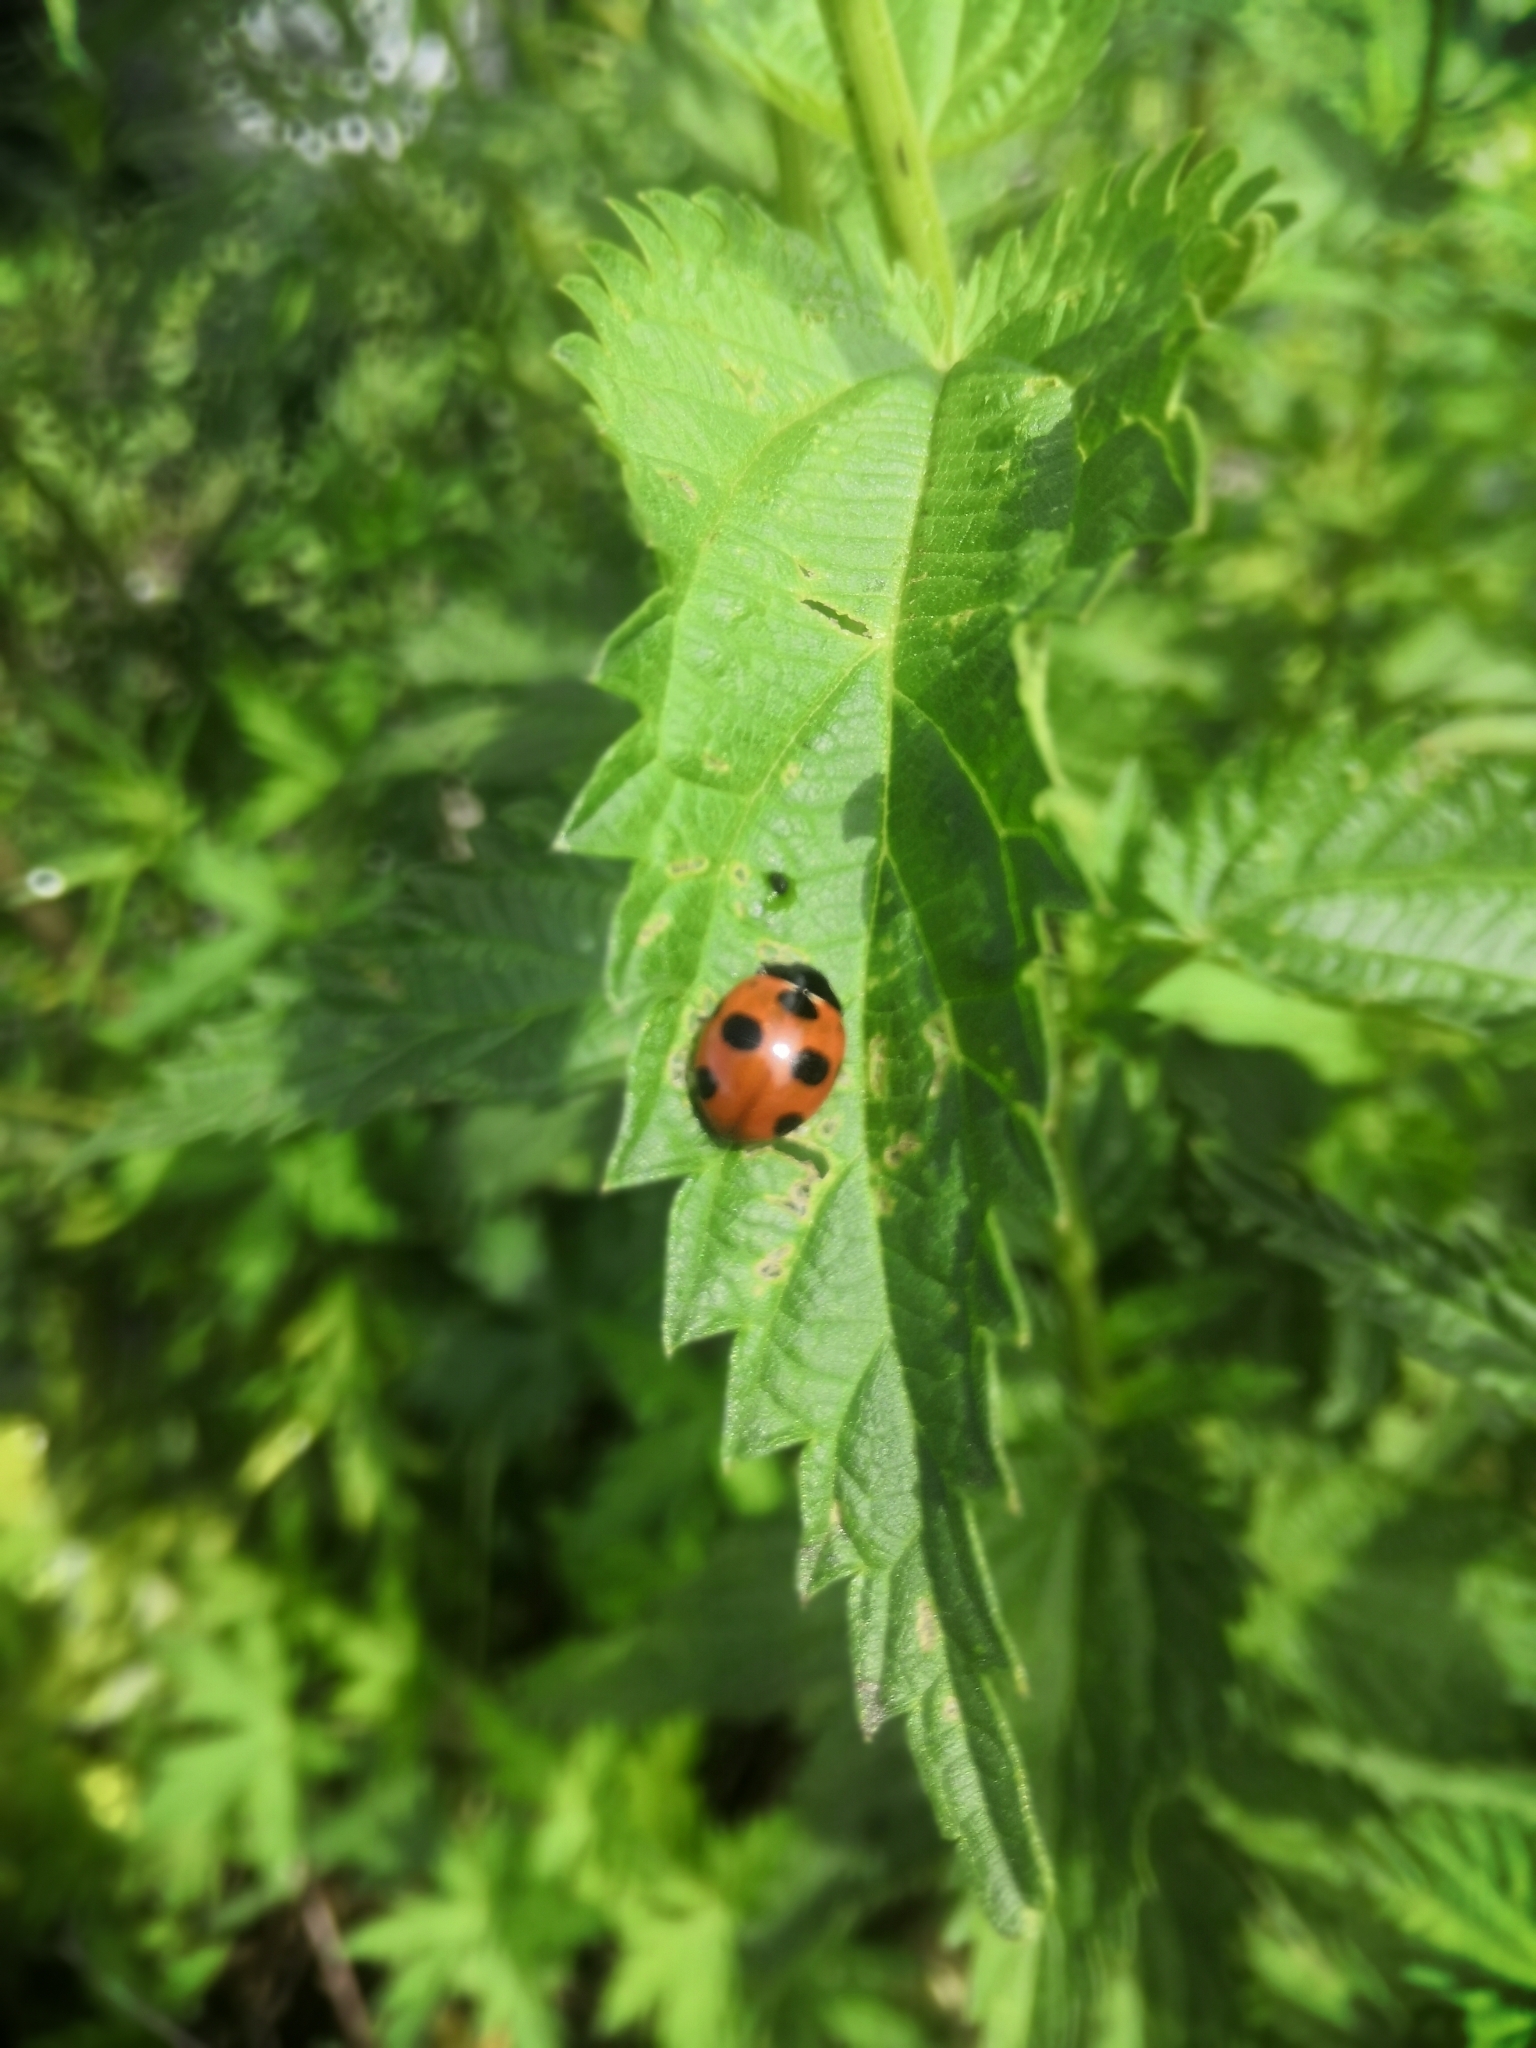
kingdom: Animalia
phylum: Arthropoda
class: Insecta
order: Coleoptera
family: Coccinellidae
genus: Coccinella
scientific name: Coccinella magnifica
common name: Scarce 7-spot ladybird
